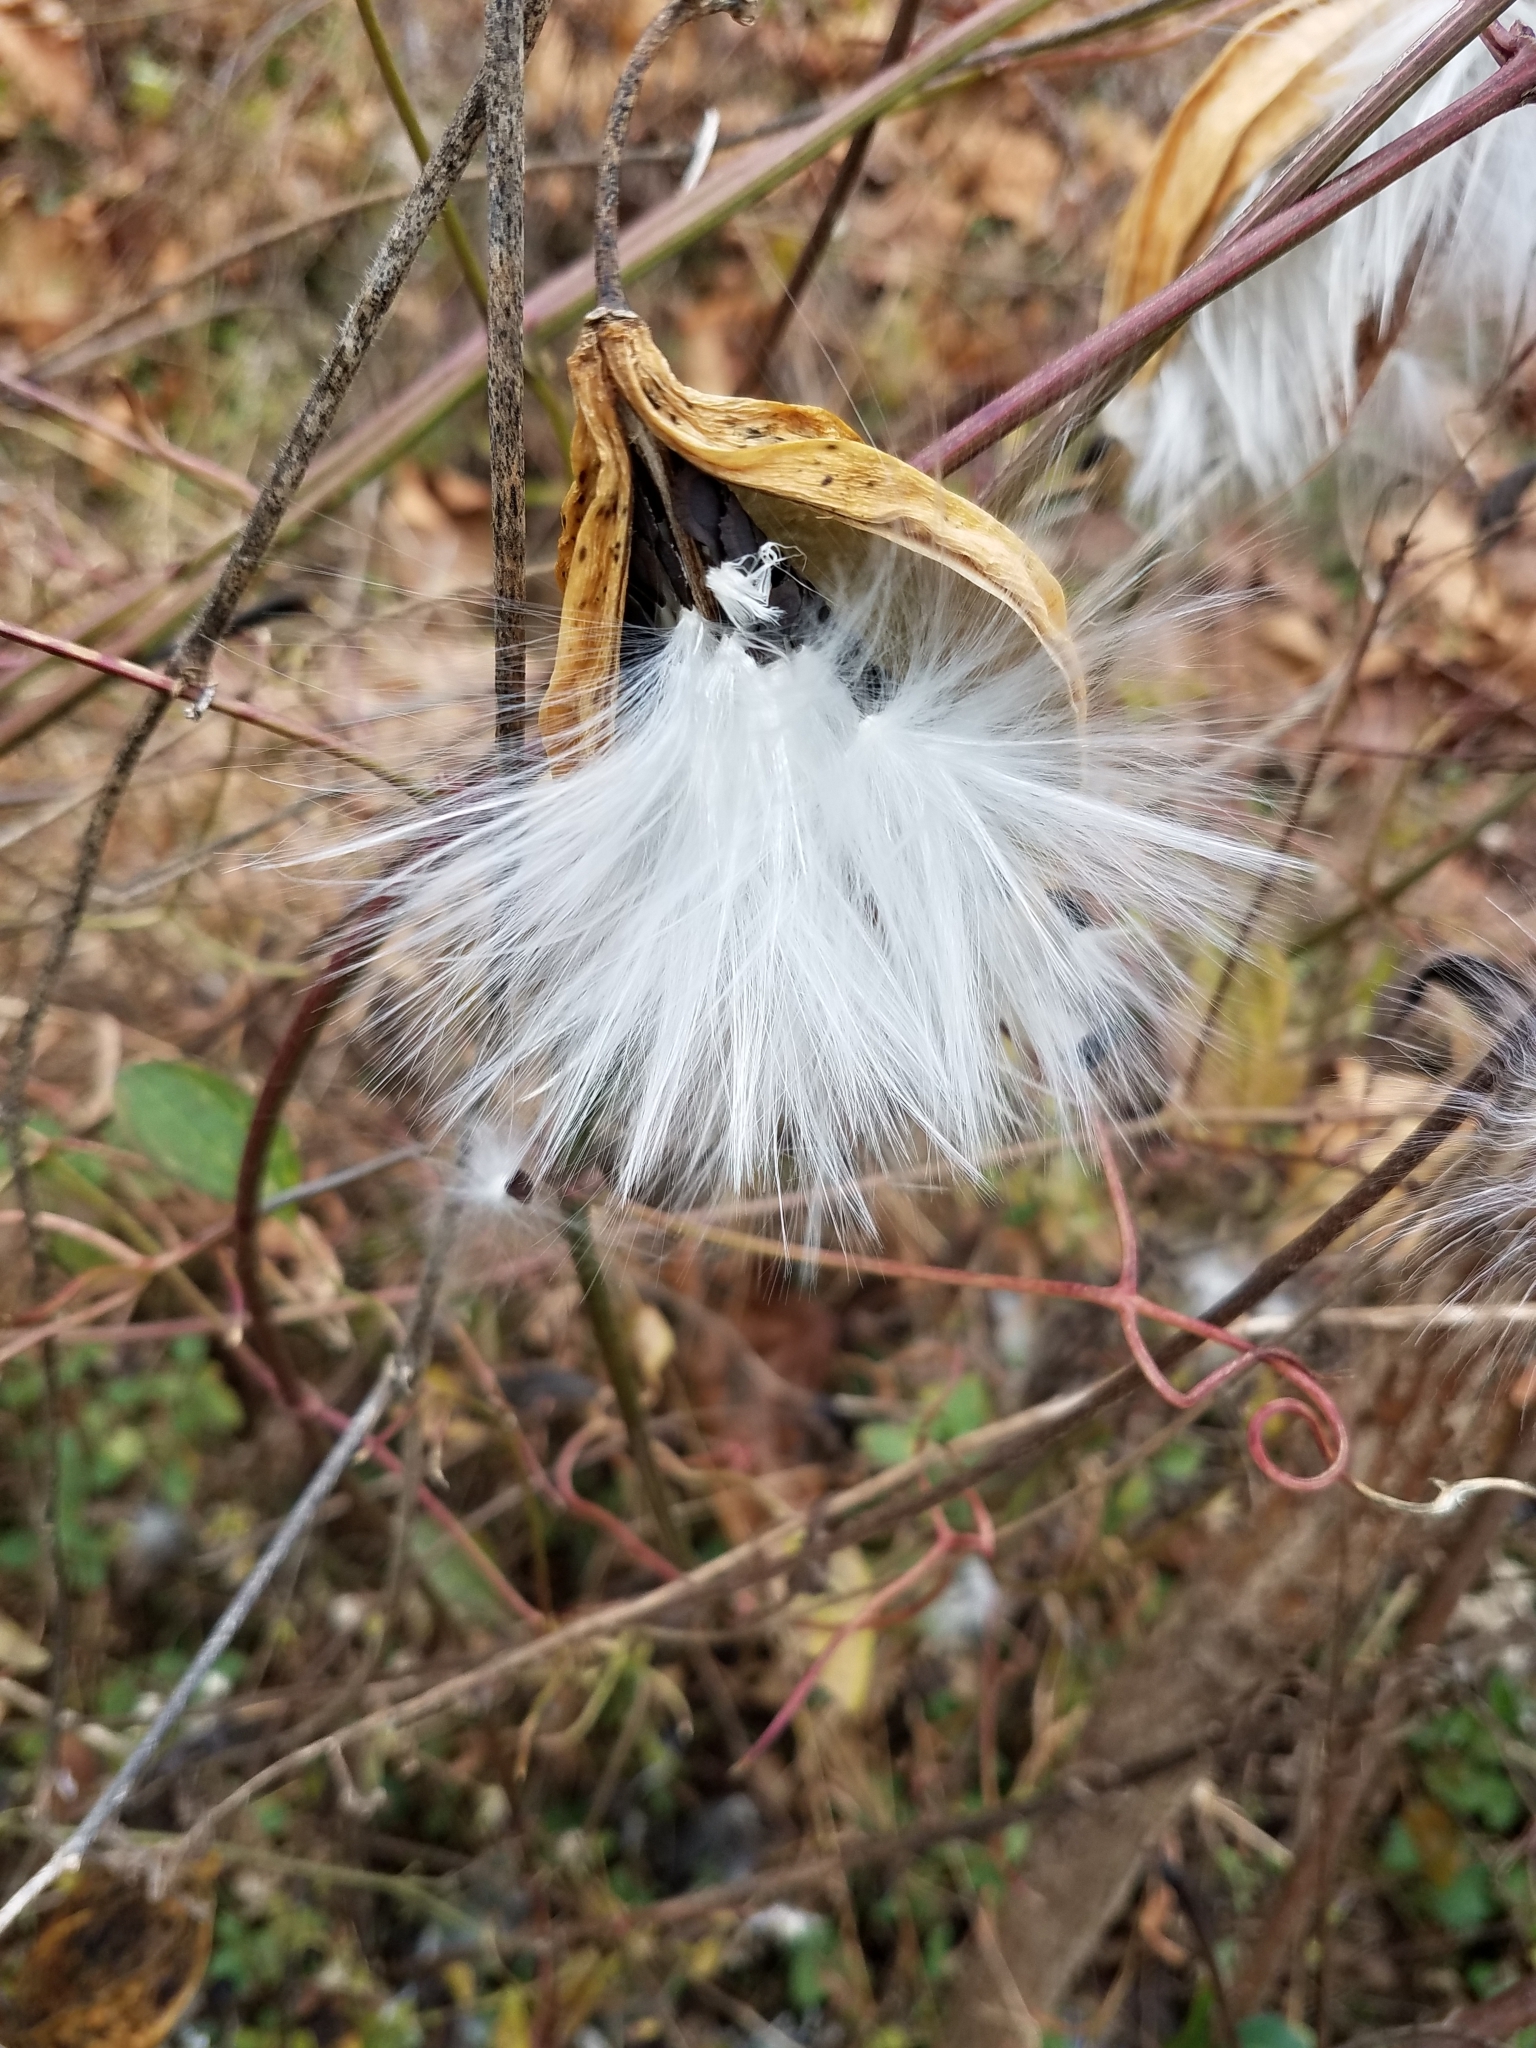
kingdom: Plantae
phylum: Tracheophyta
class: Magnoliopsida
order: Gentianales
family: Apocynaceae
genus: Asclepias
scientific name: Asclepias syriaca
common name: Common milkweed
